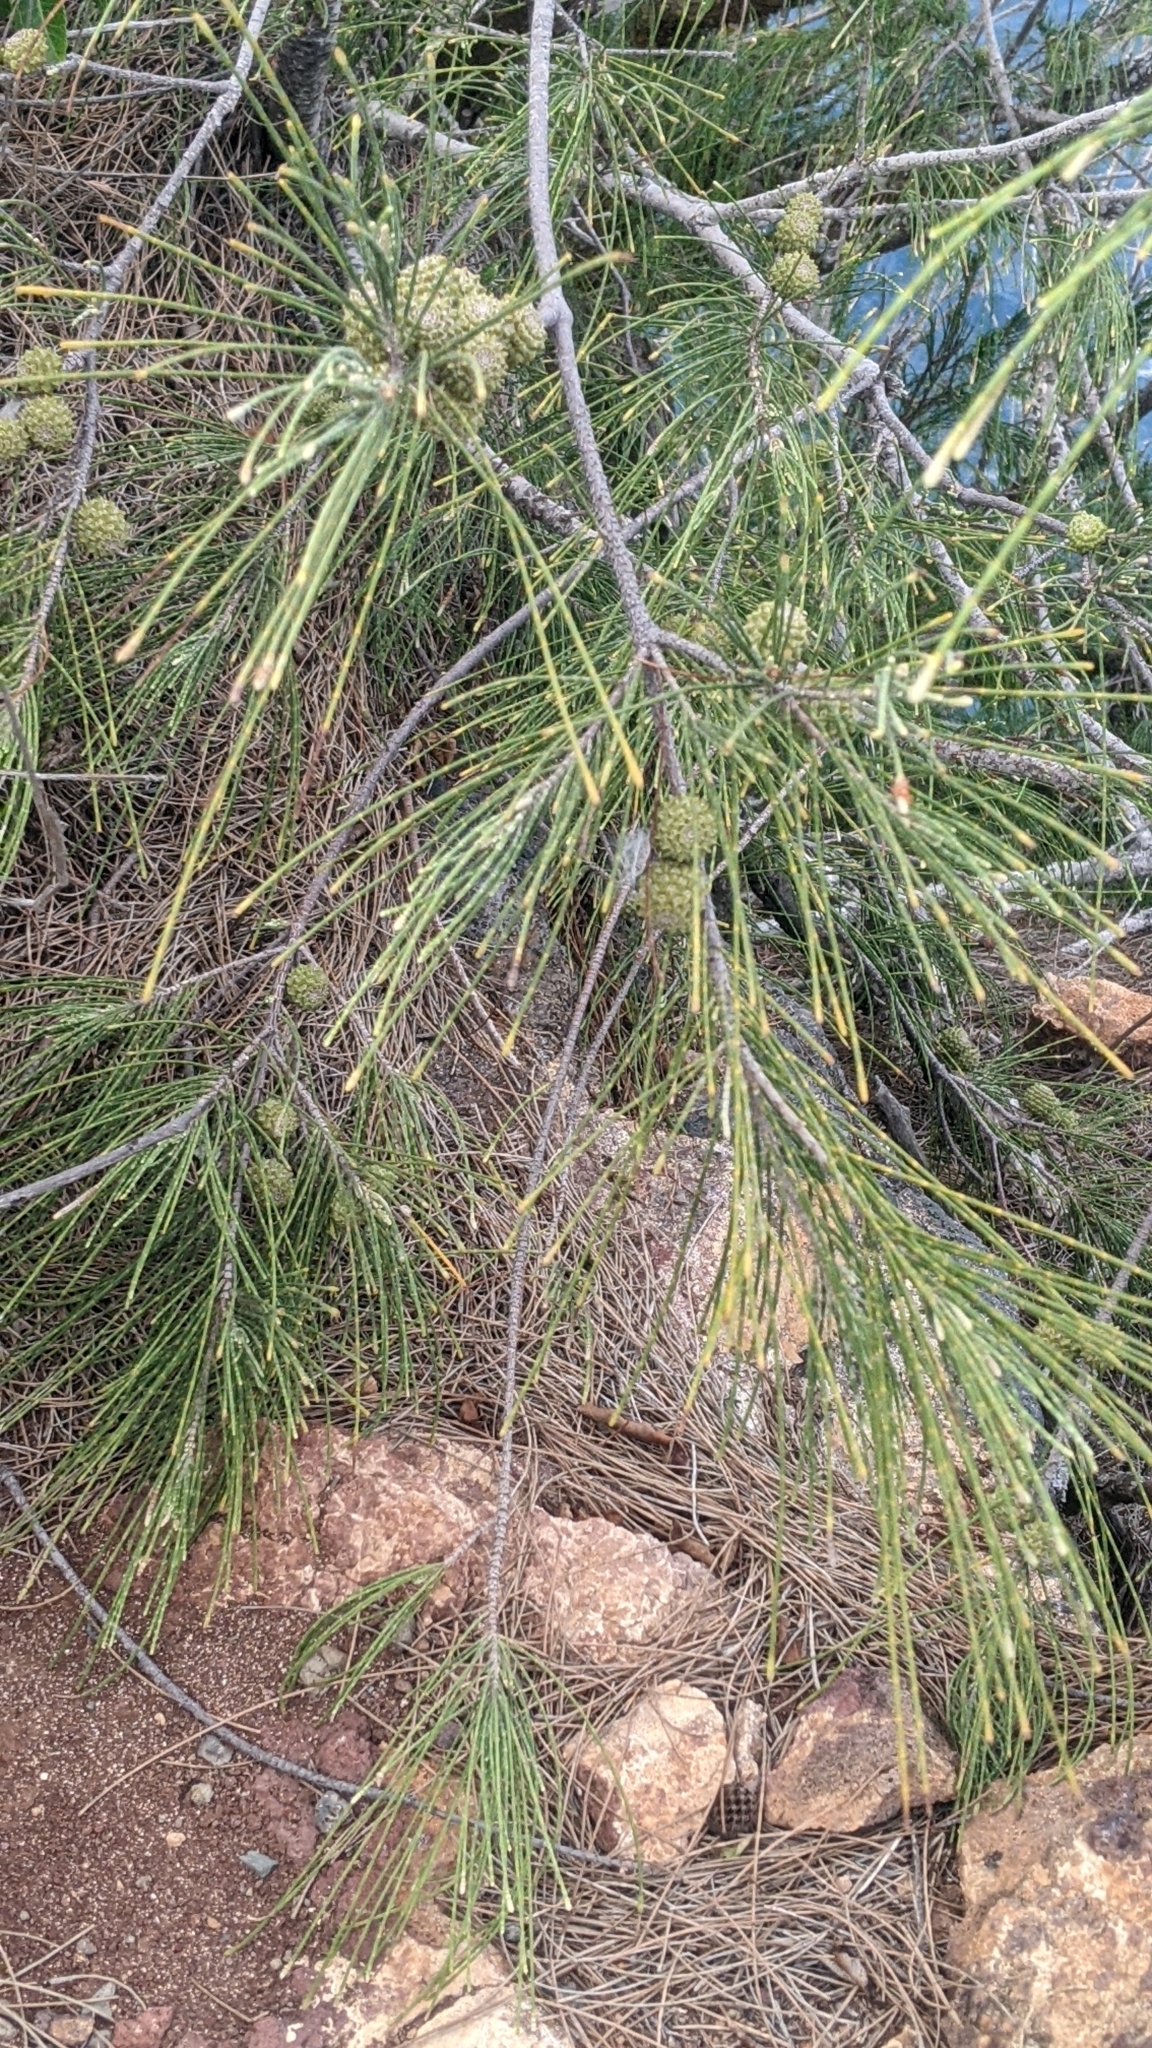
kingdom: Plantae
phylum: Tracheophyta
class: Magnoliopsida
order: Fagales
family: Casuarinaceae
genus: Casuarina
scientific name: Casuarina equisetifolia
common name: Beach sheoak
